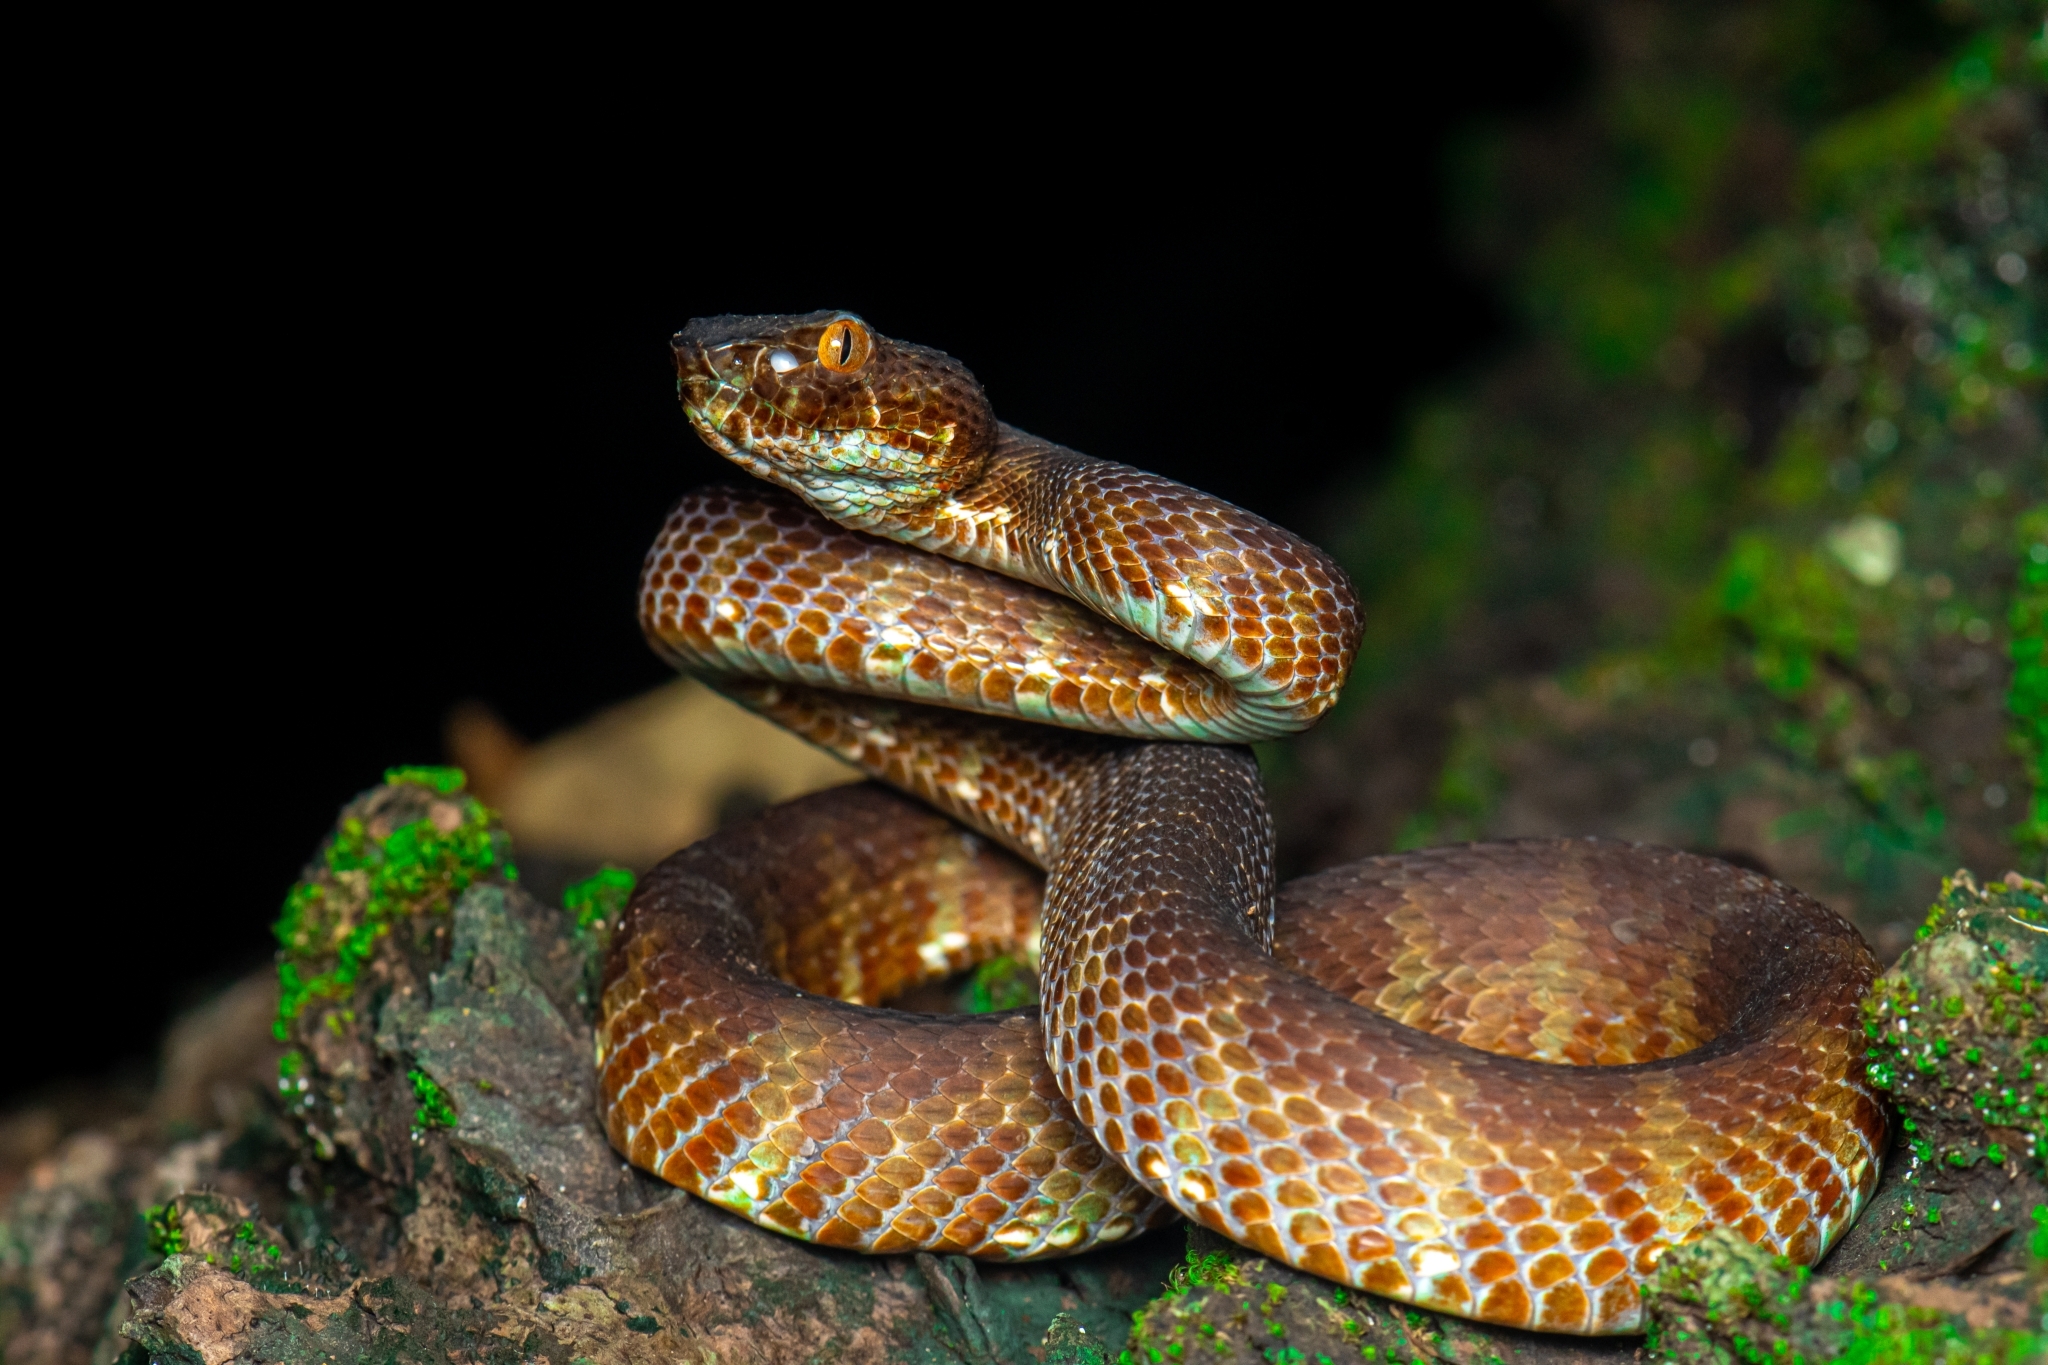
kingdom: Animalia
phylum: Chordata
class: Squamata
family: Viperidae
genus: Trimeresurus
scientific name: Trimeresurus andersonii
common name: Andaman pit viper
